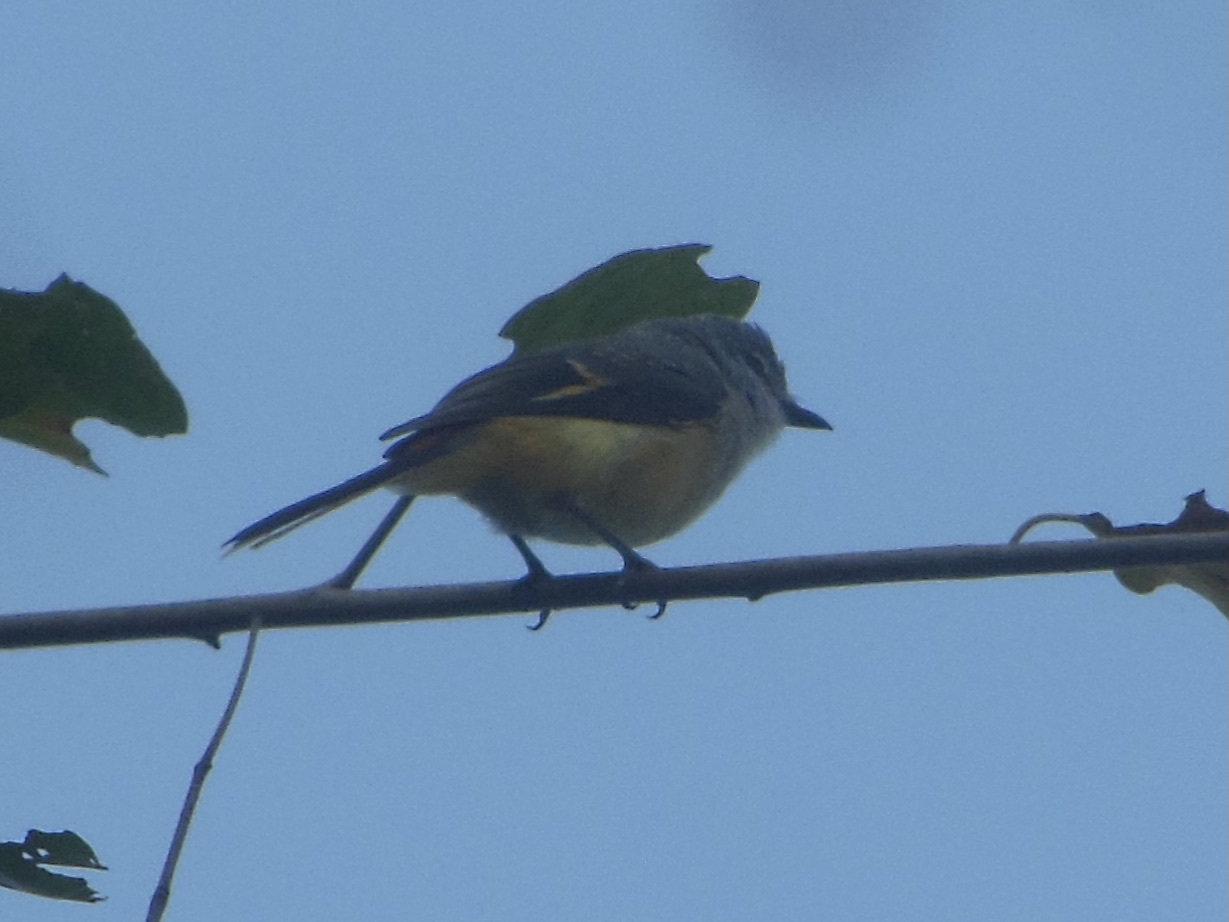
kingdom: Animalia
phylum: Chordata
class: Aves
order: Passeriformes
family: Campephagidae
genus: Pericrocotus
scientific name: Pericrocotus cinnamomeus
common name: Small minivet
